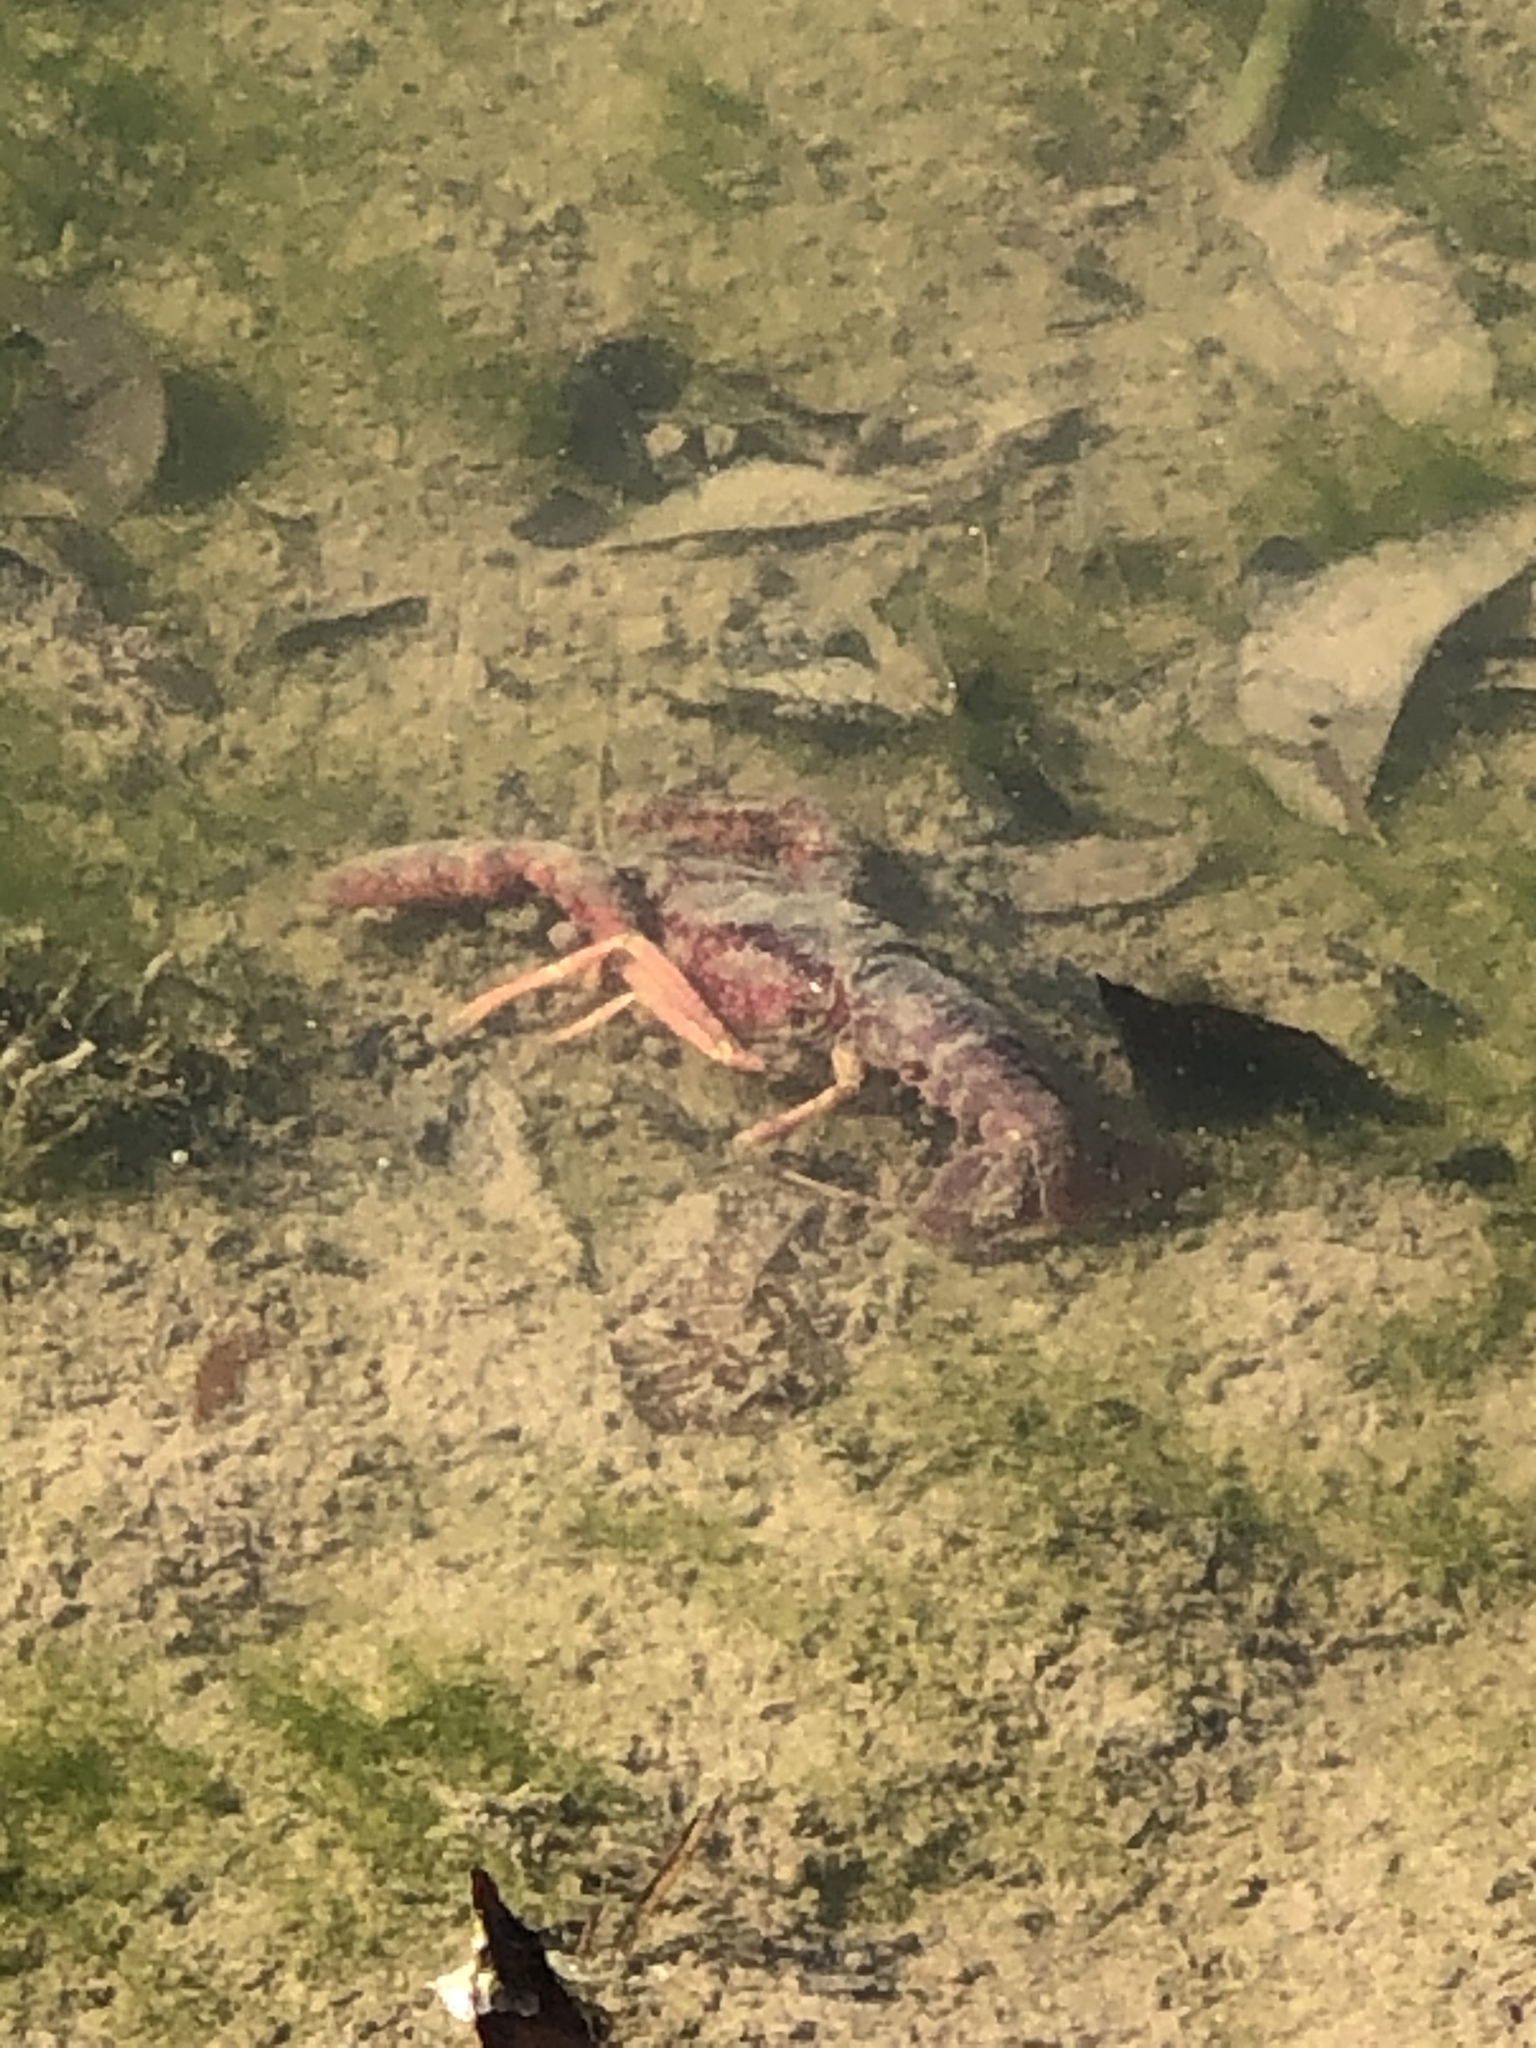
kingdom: Animalia
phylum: Arthropoda
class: Malacostraca
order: Decapoda
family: Cambaridae
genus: Procambarus
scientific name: Procambarus clarkii
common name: Red swamp crayfish
